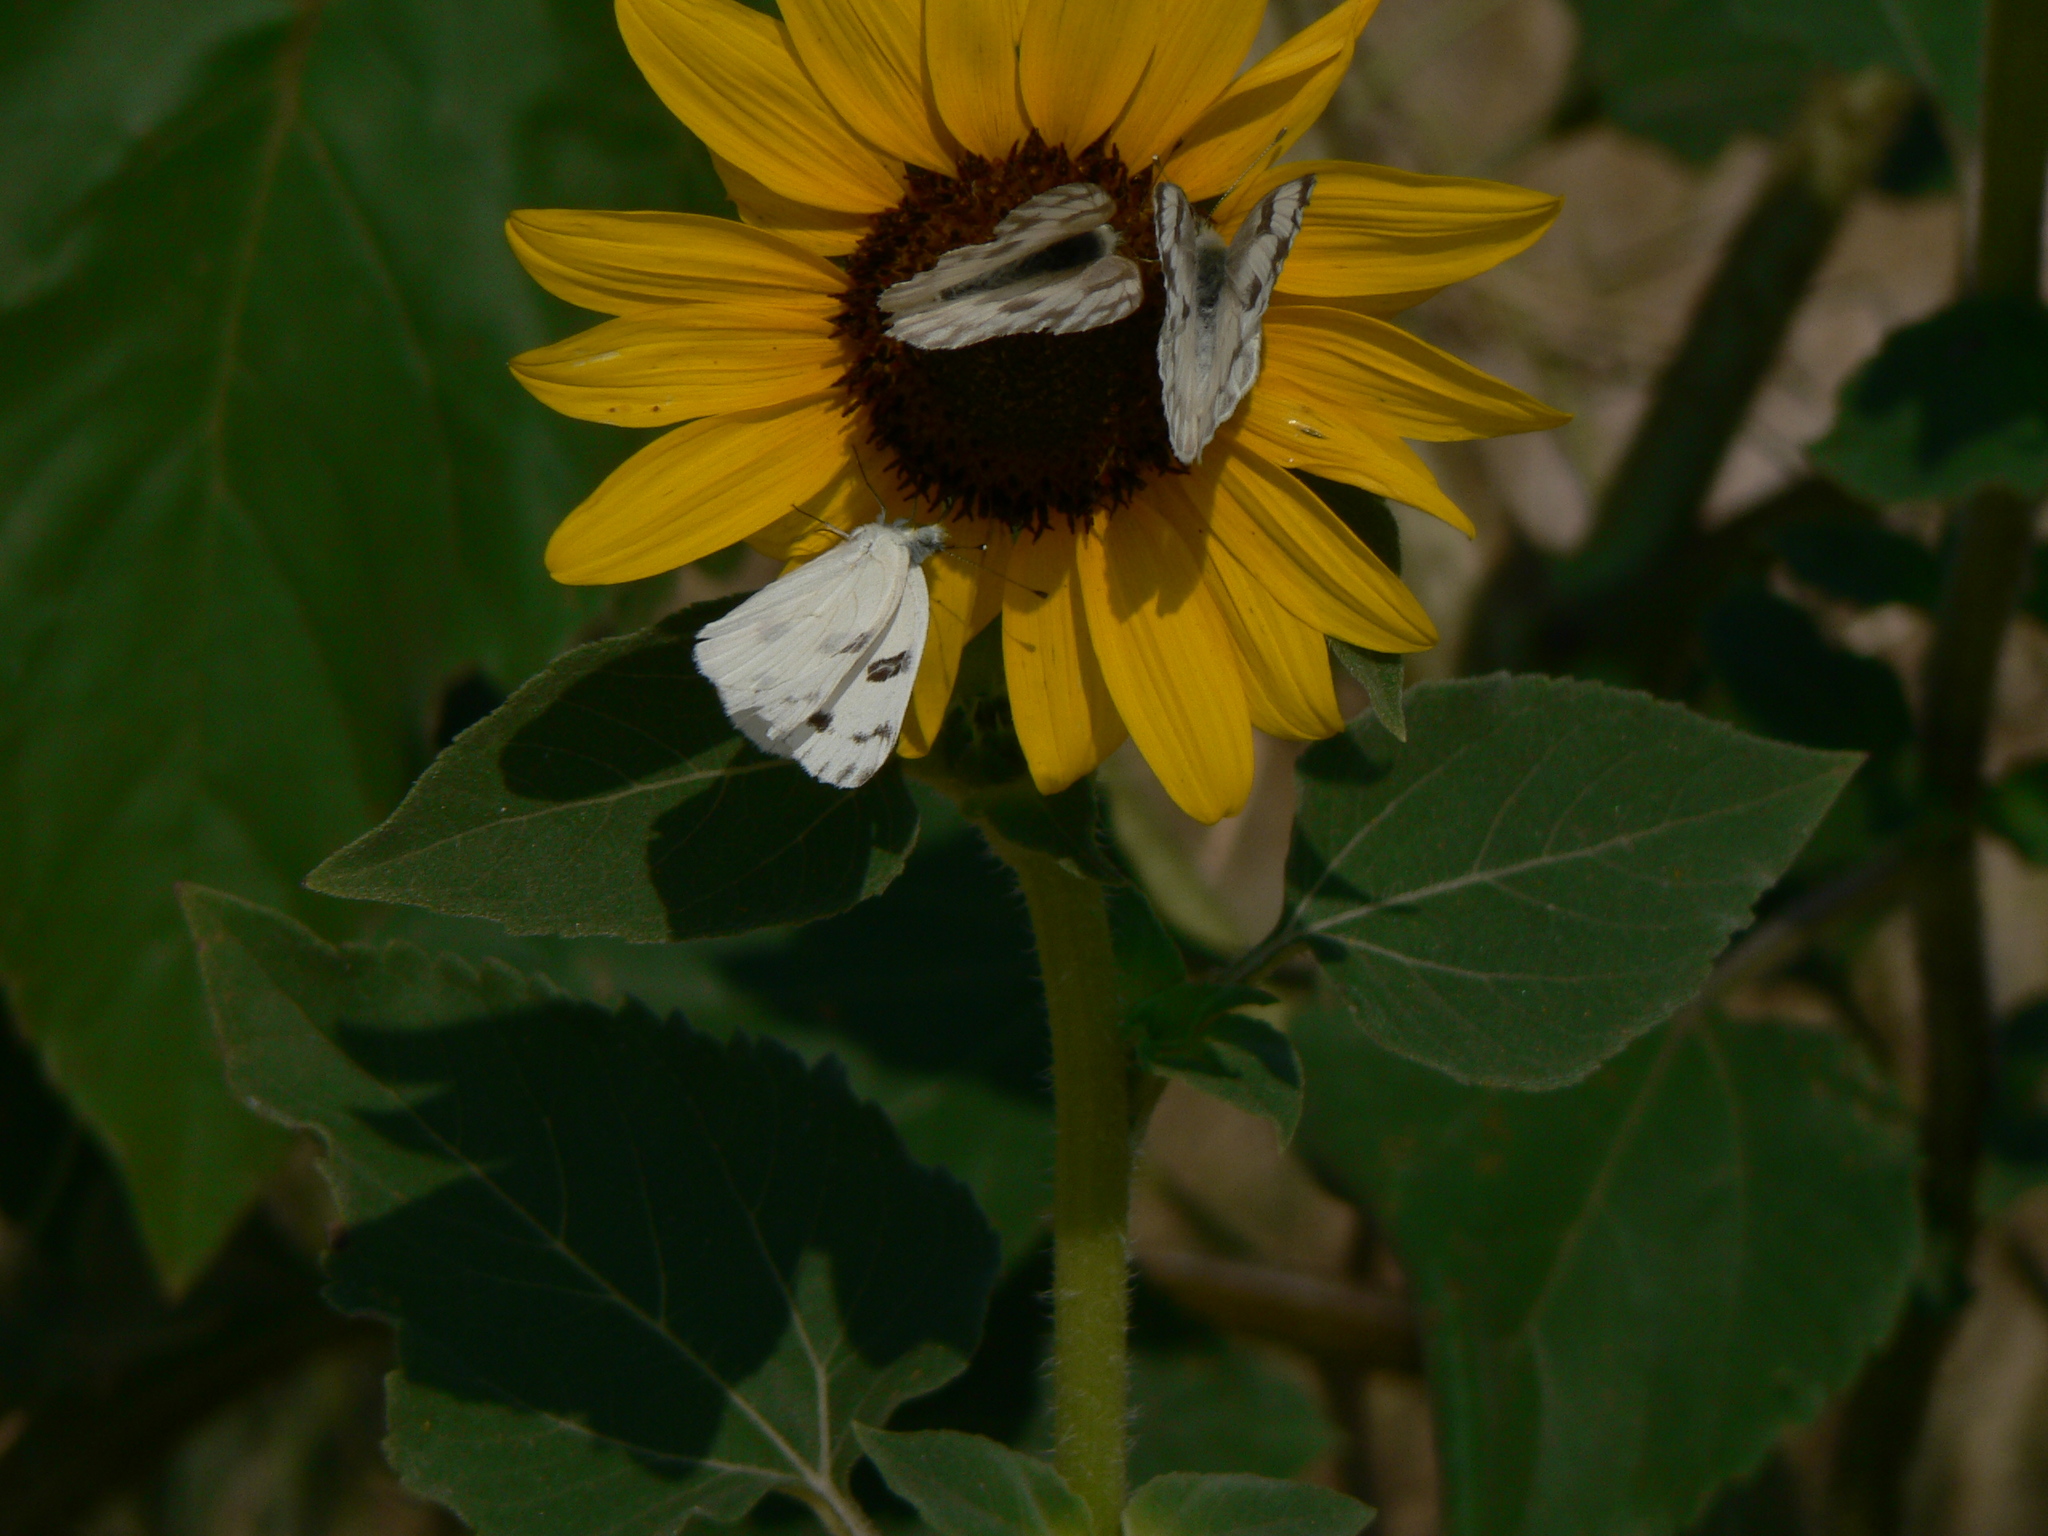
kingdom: Animalia
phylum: Arthropoda
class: Insecta
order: Lepidoptera
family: Pieridae
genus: Pontia
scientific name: Pontia protodice
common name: Checkered white
